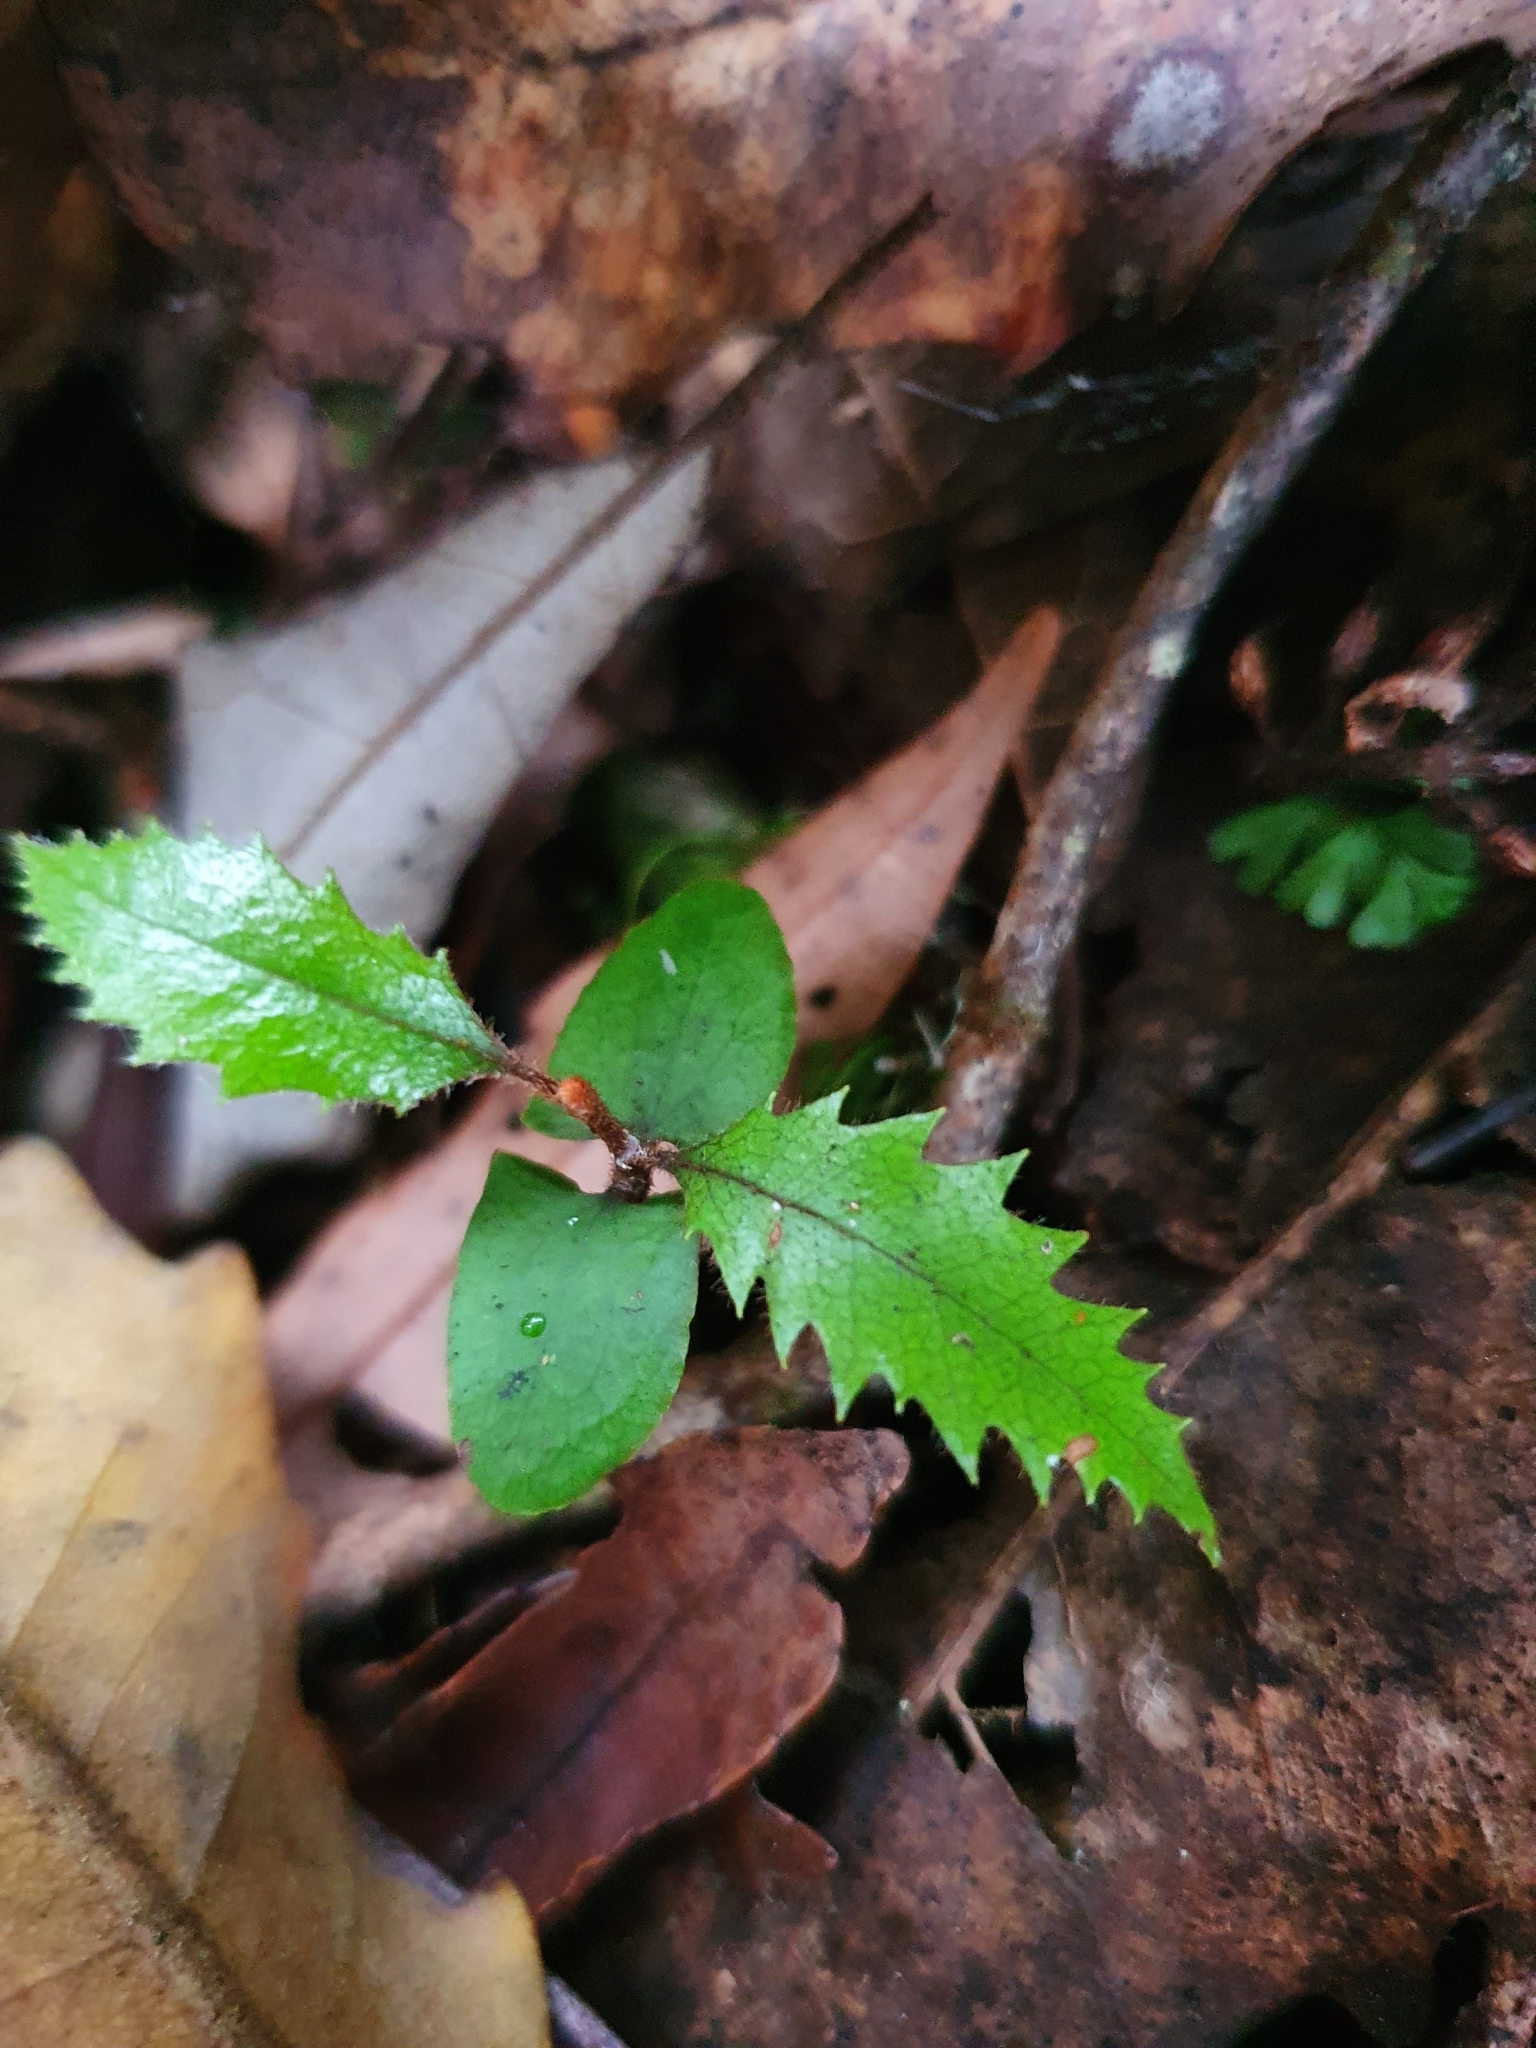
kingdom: Plantae
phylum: Tracheophyta
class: Magnoliopsida
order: Proteales
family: Proteaceae
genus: Knightia
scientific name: Knightia excelsa
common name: New zealand-honeysuckle
